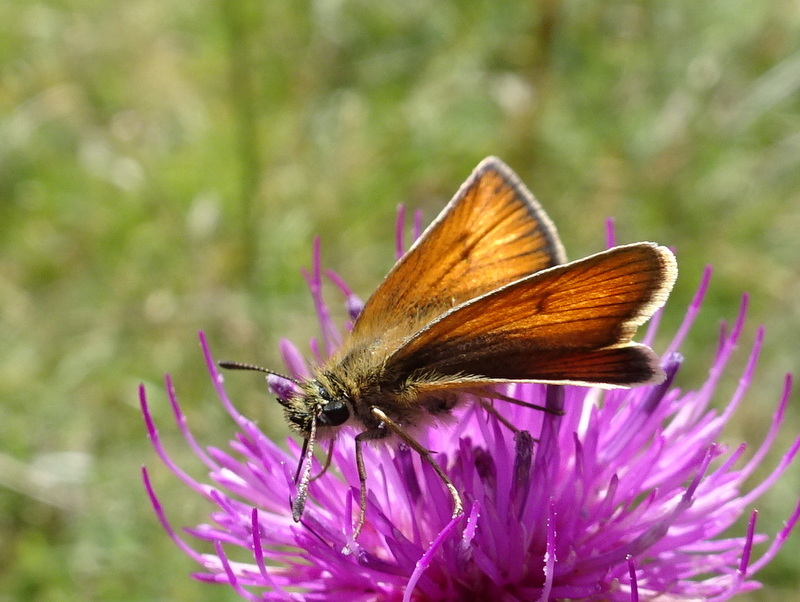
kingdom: Animalia
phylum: Arthropoda
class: Insecta
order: Lepidoptera
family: Hesperiidae
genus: Thymelicus
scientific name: Thymelicus lineola
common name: Essex skipper
